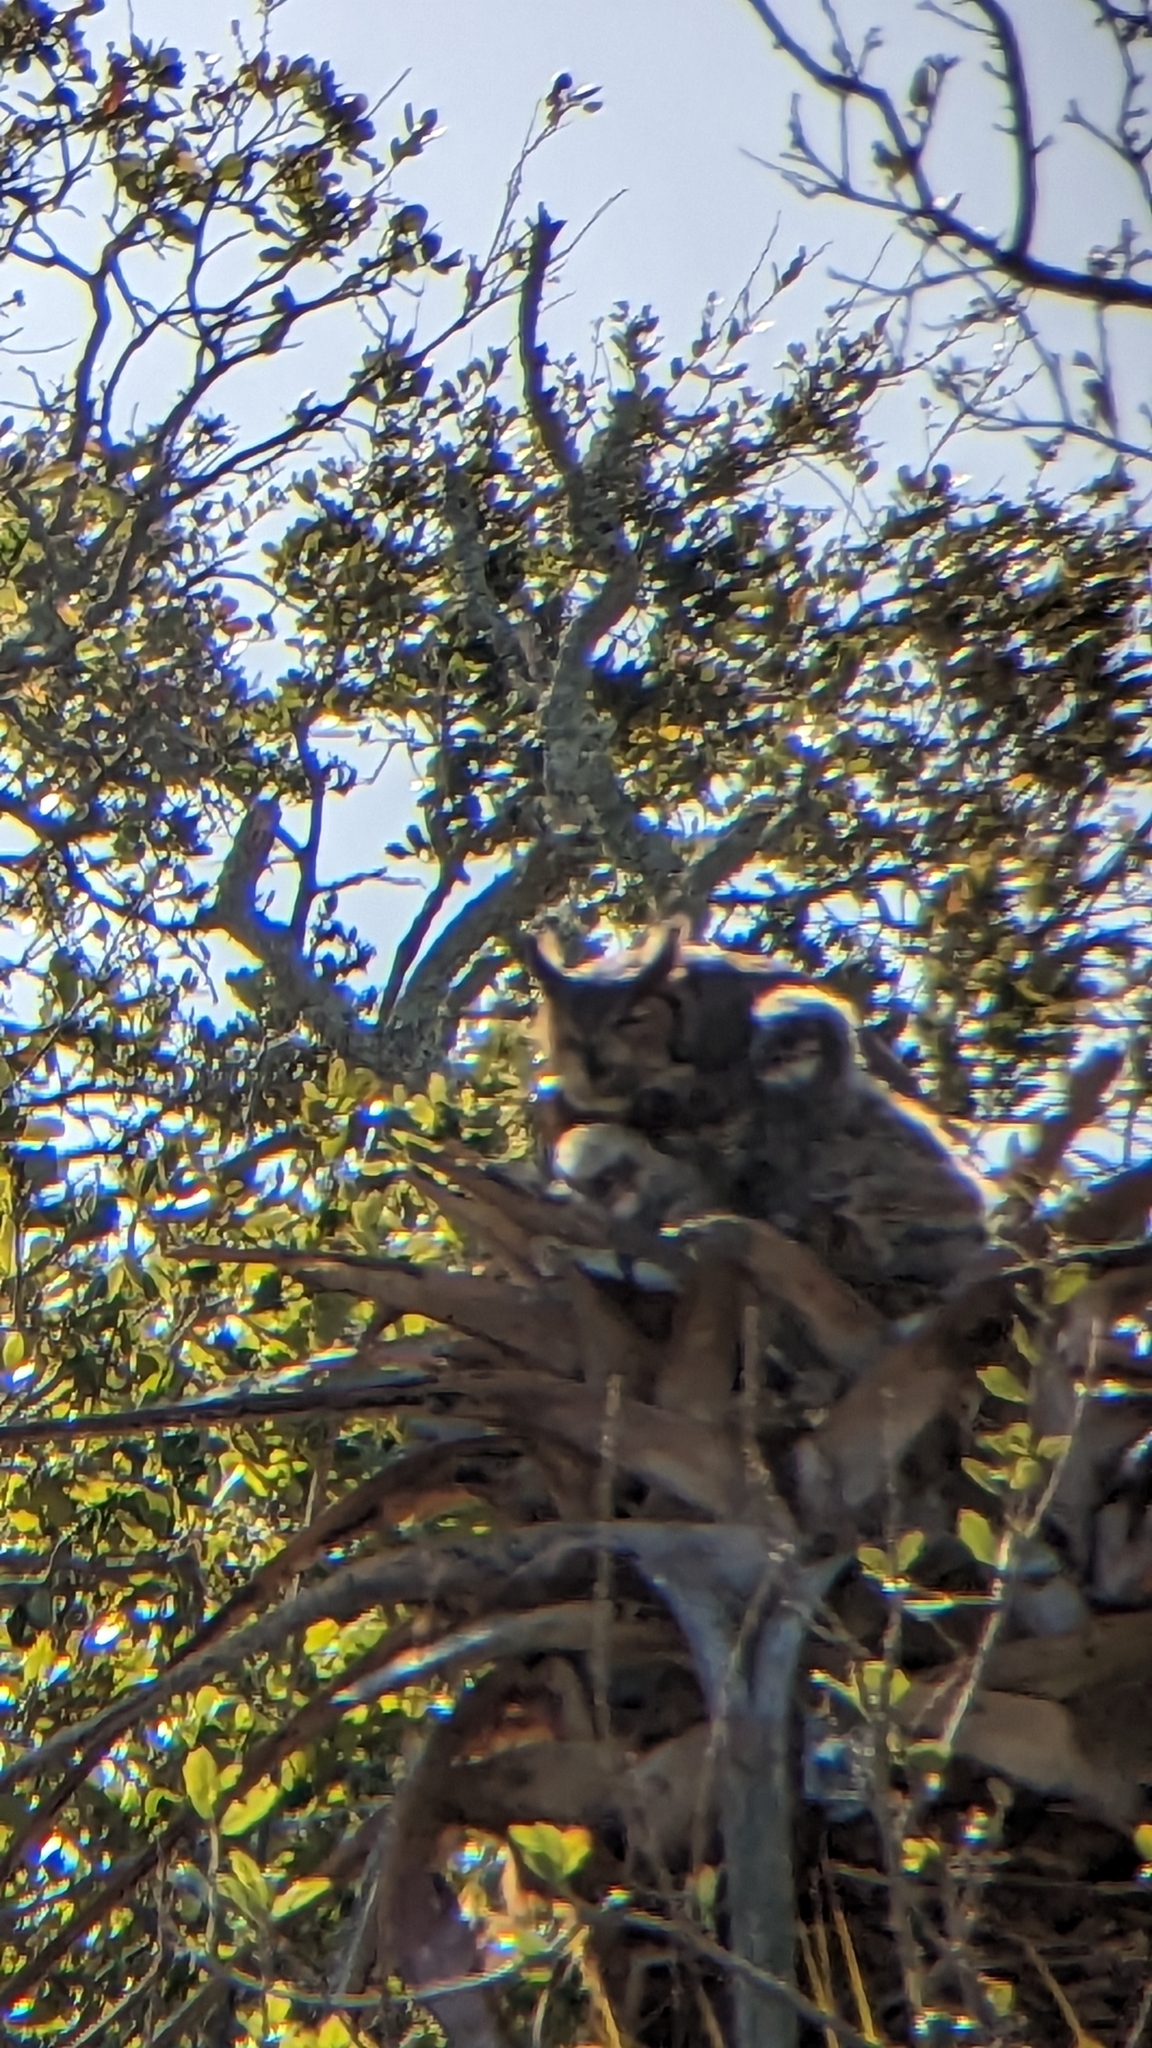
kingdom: Animalia
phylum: Chordata
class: Aves
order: Strigiformes
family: Strigidae
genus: Bubo
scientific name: Bubo virginianus
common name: Great horned owl
